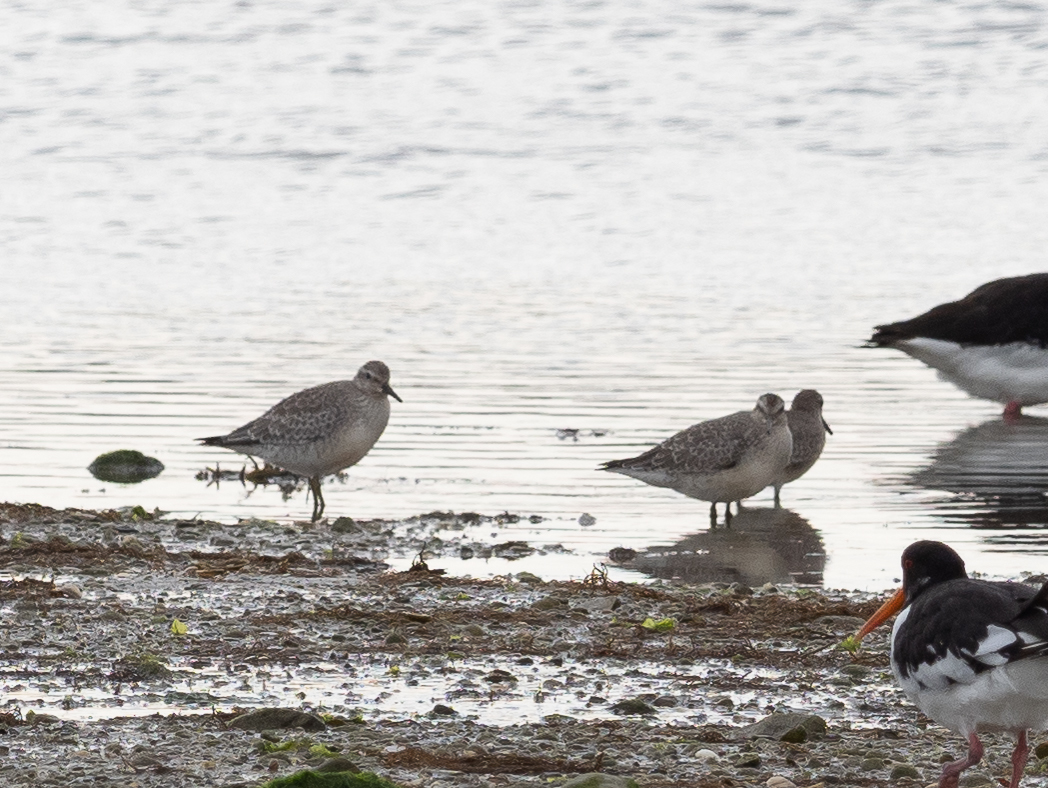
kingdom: Animalia
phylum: Chordata
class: Aves
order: Charadriiformes
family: Scolopacidae
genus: Calidris
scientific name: Calidris canutus
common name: Red knot
